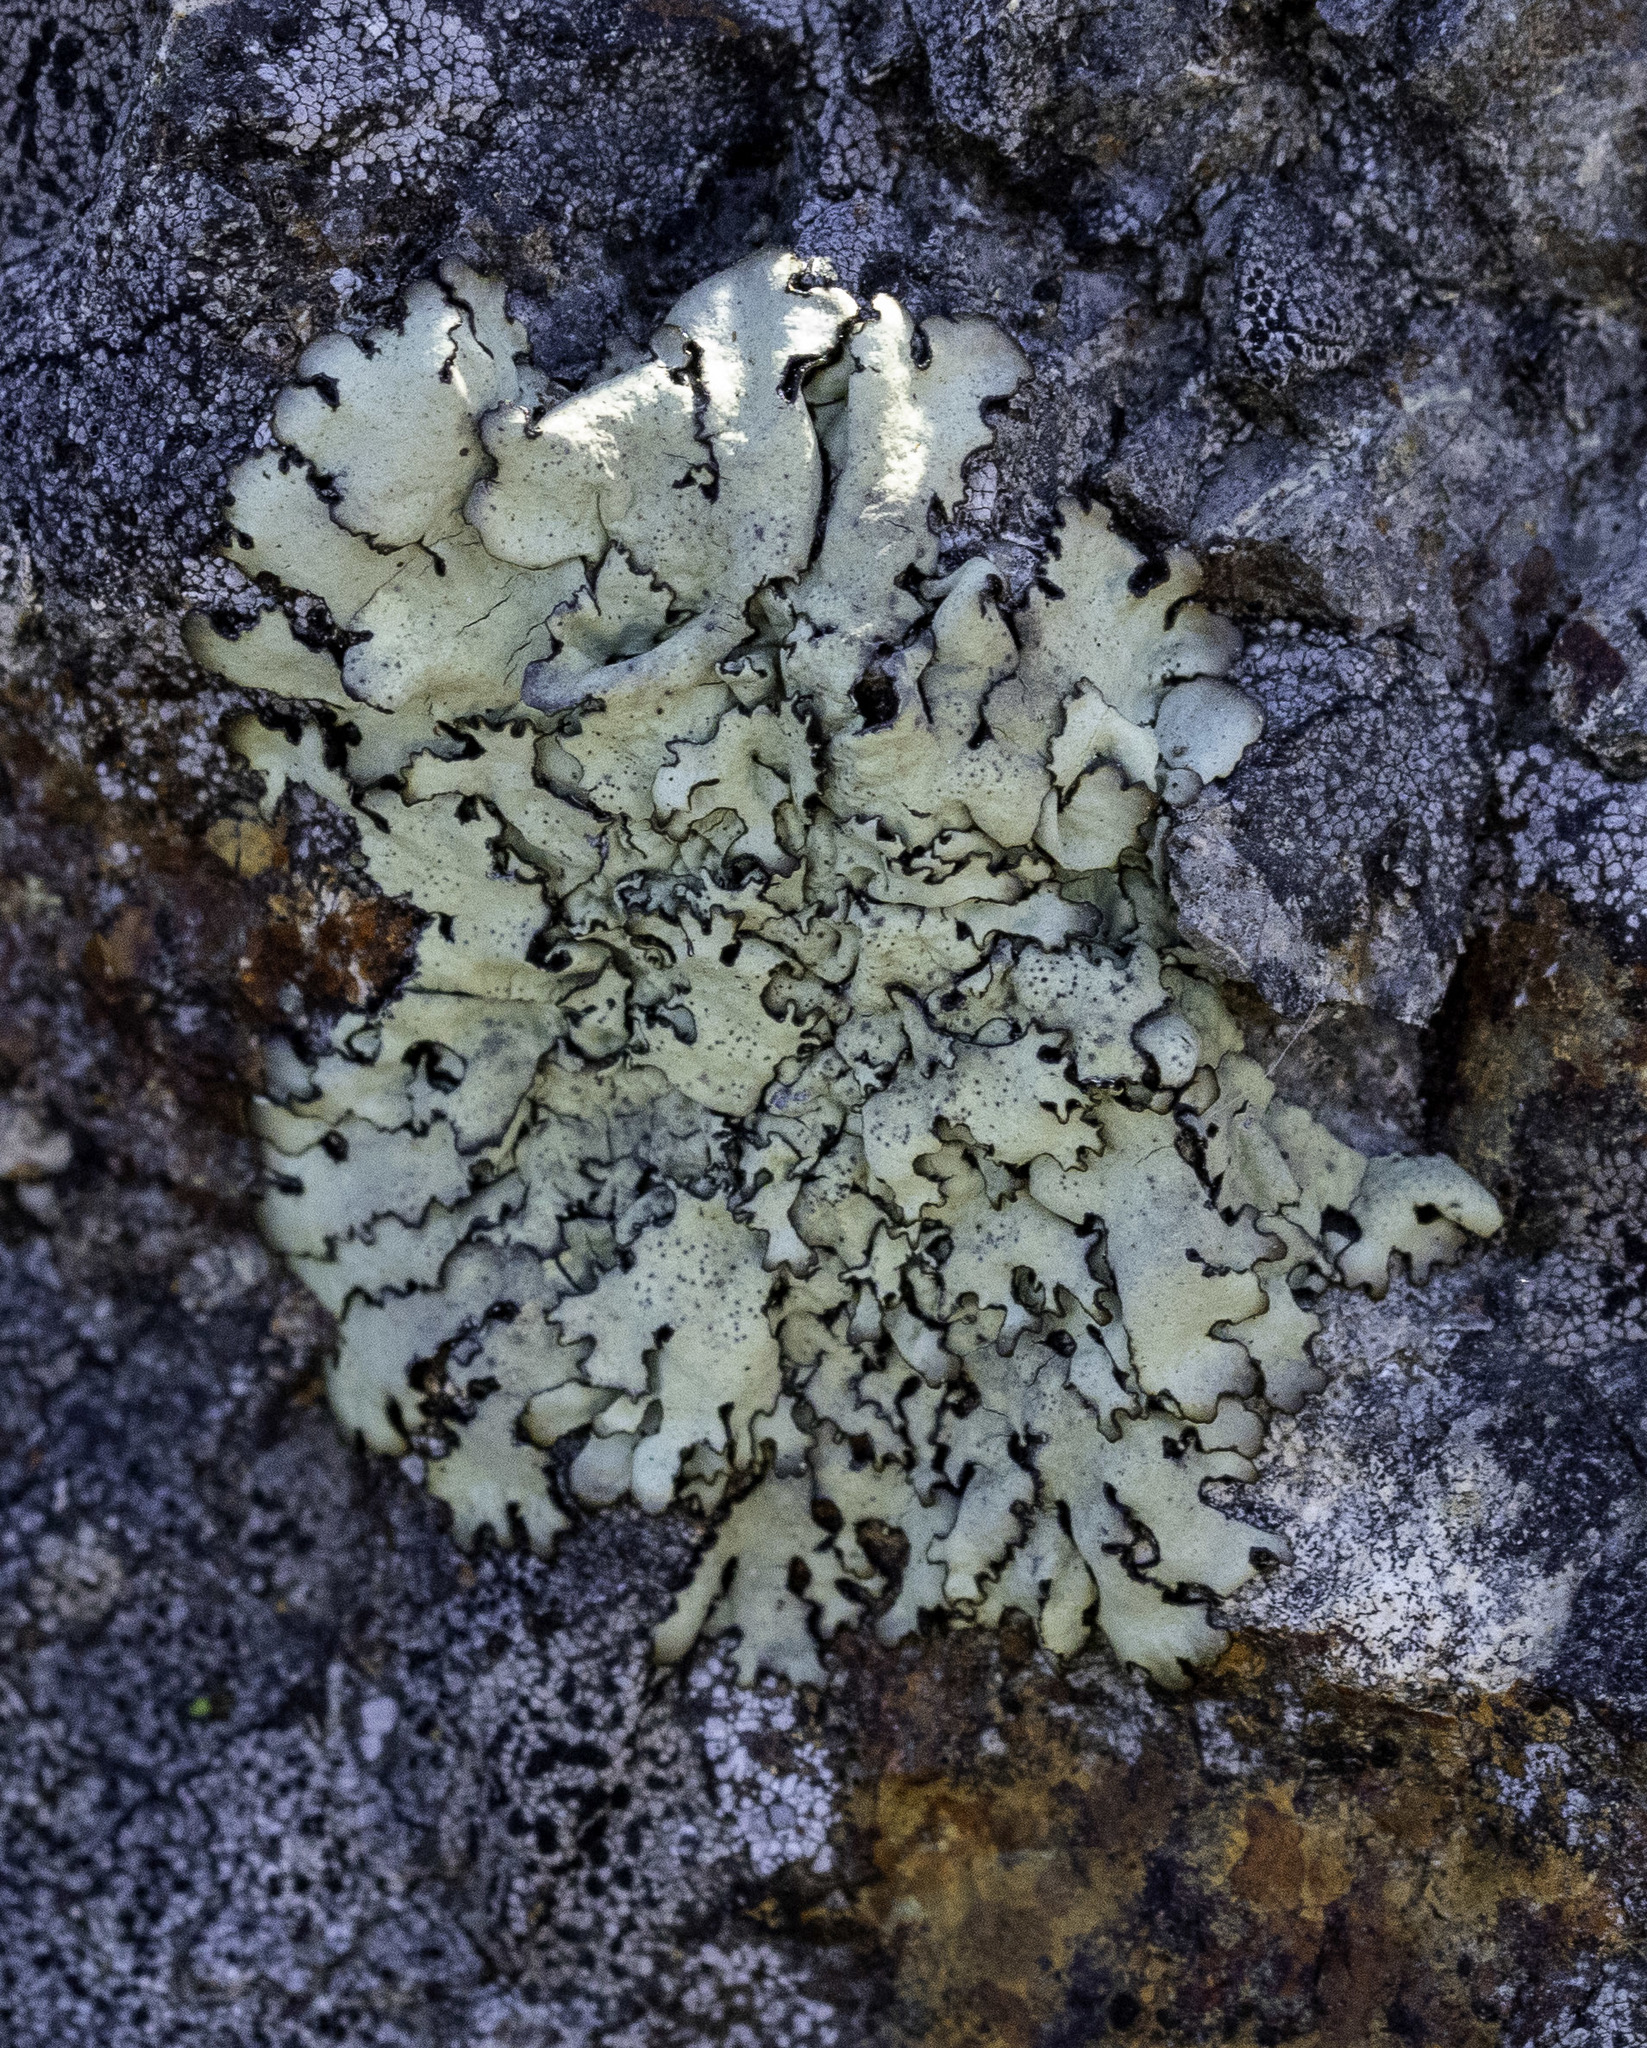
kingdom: Fungi
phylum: Ascomycota
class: Lecanoromycetes
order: Lecanorales
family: Parmeliaceae
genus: Xanthoparmelia
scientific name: Xanthoparmelia cumberlandia
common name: Cumberland rock shield
